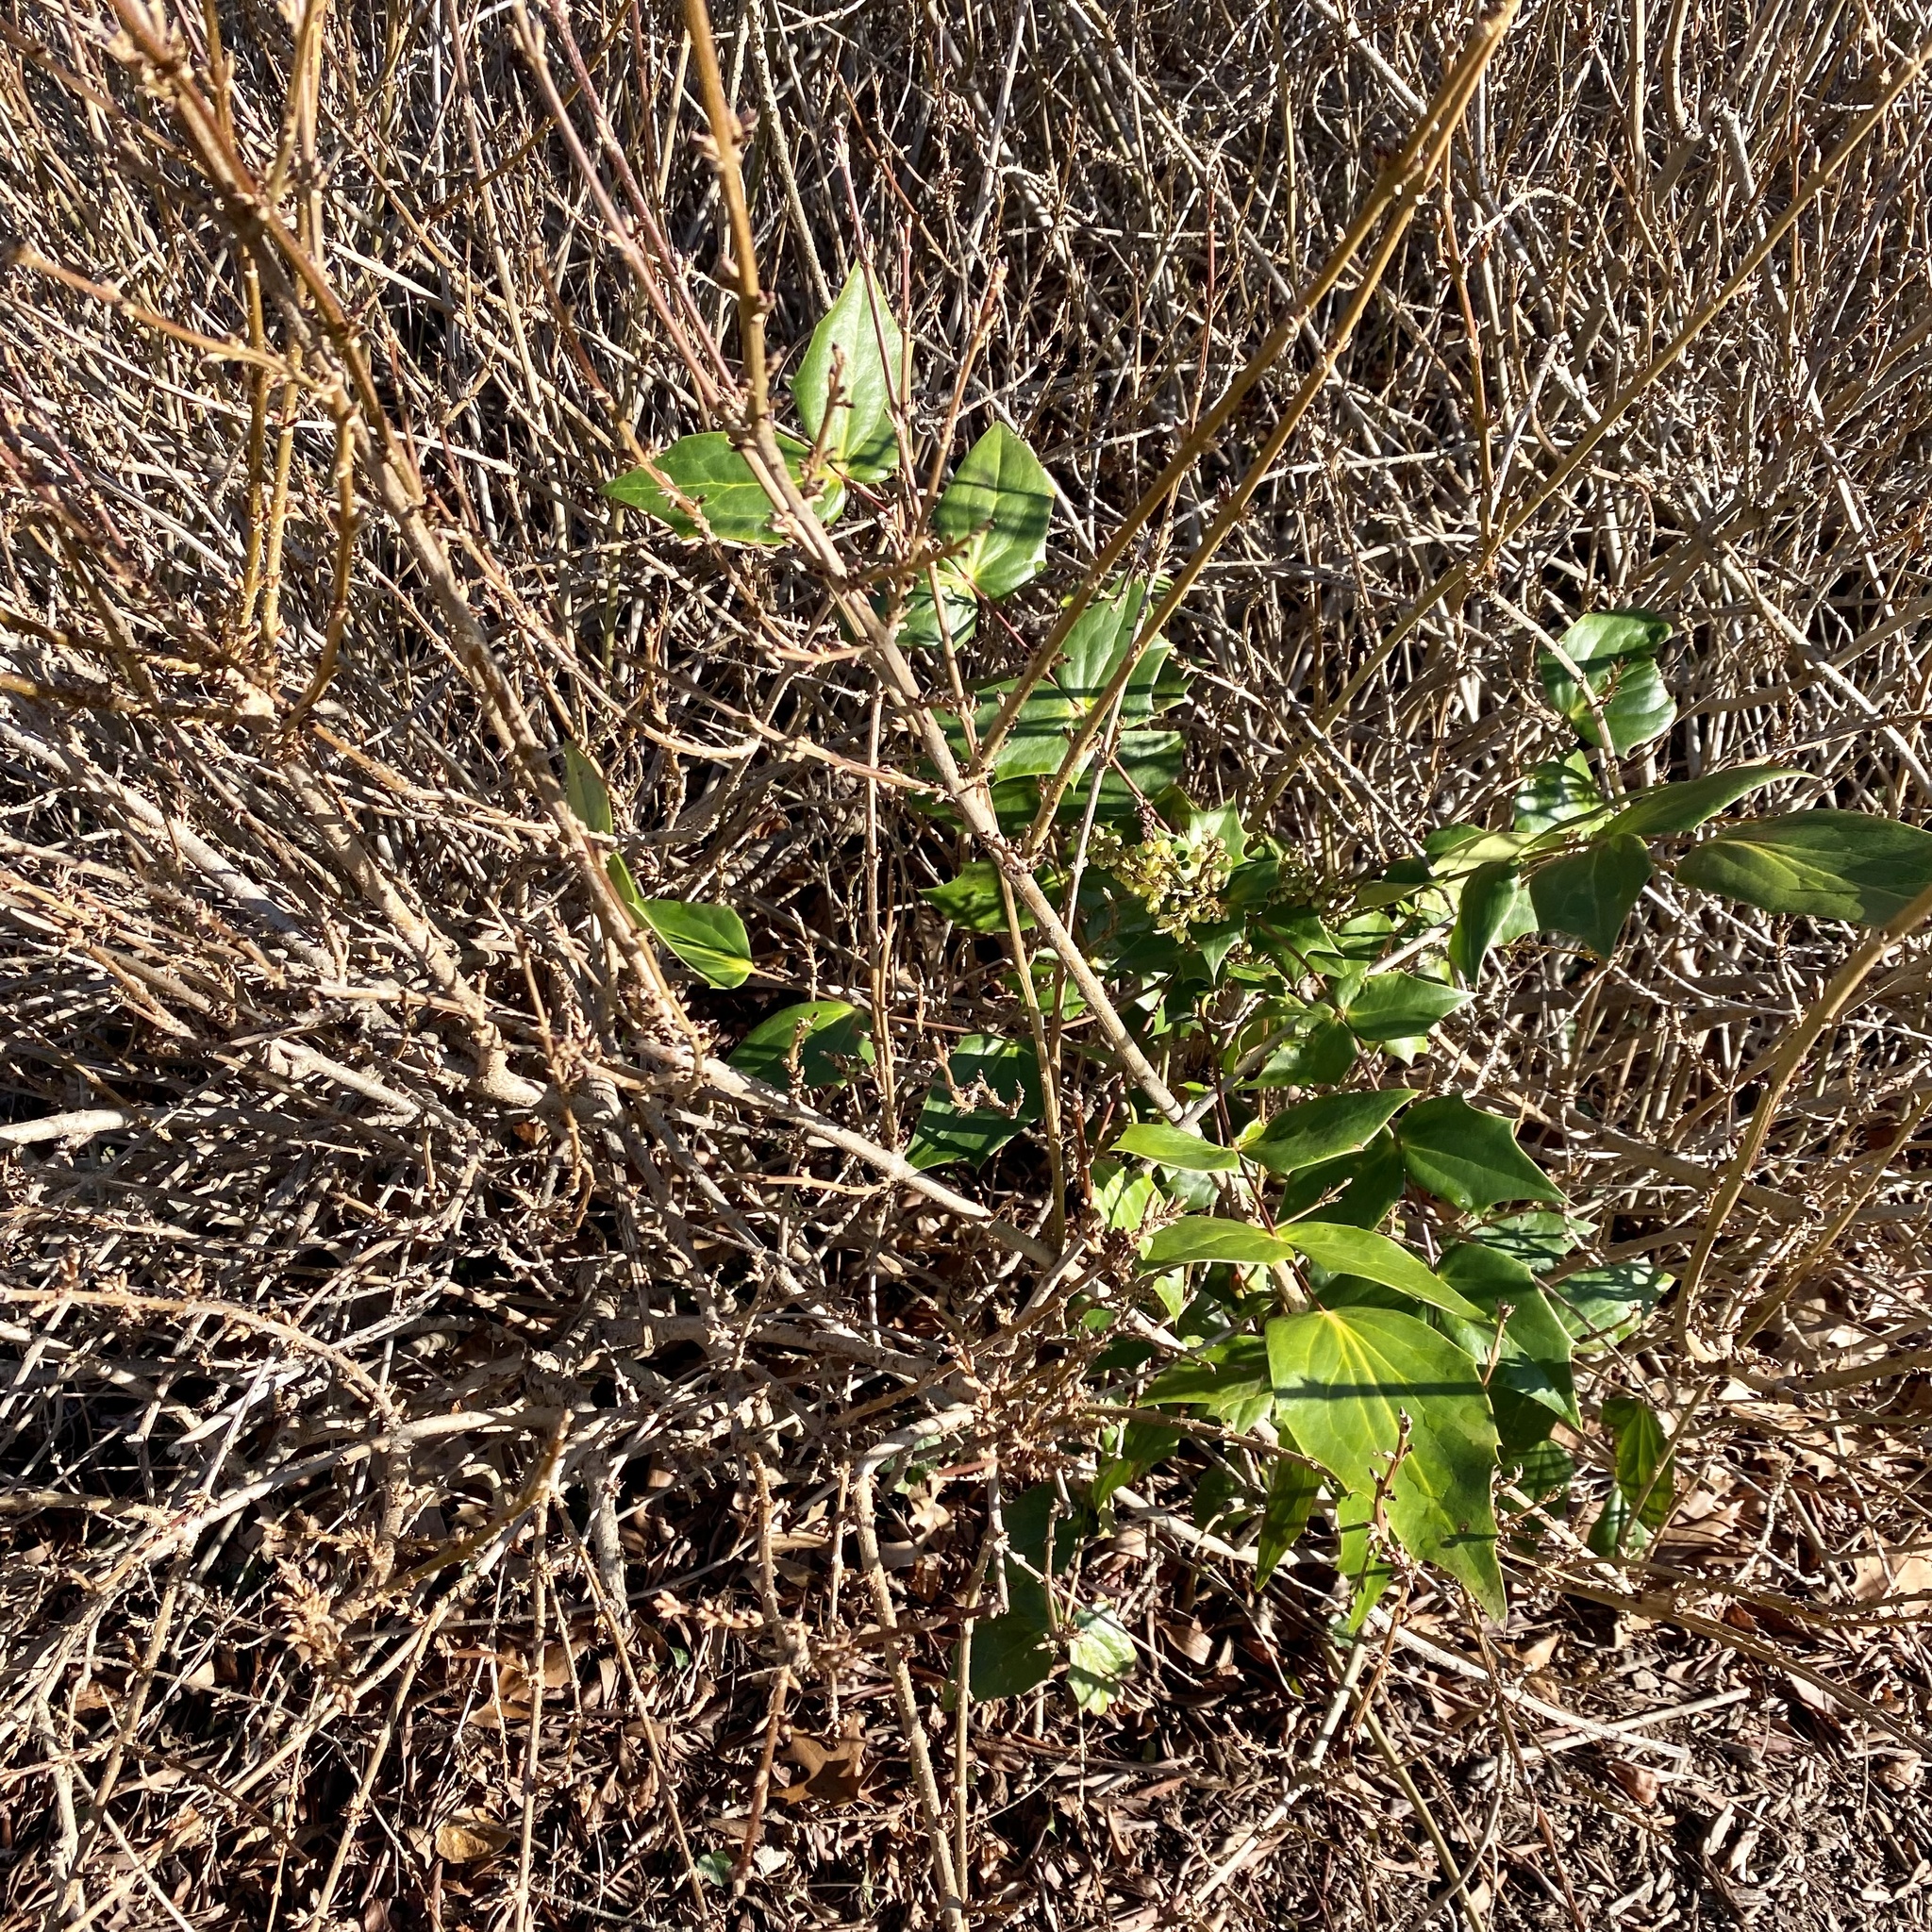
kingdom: Plantae
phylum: Tracheophyta
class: Magnoliopsida
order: Ranunculales
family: Berberidaceae
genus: Mahonia
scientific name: Mahonia bealei
